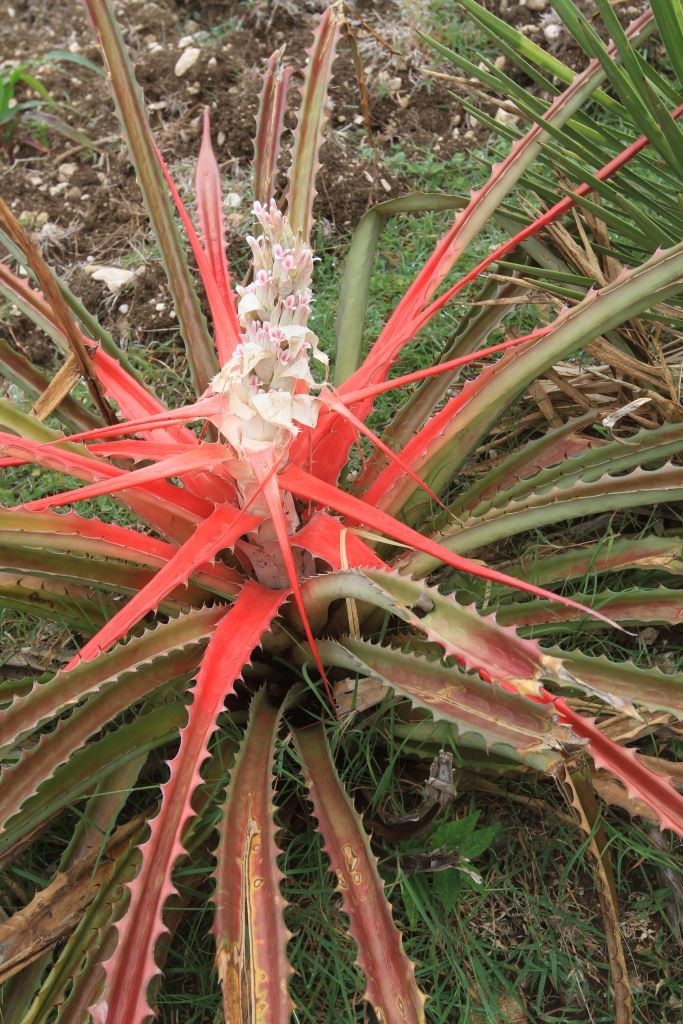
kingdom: Plantae
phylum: Tracheophyta
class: Liliopsida
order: Poales
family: Bromeliaceae
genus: Bromelia
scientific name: Bromelia pinguin
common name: Pinguin
